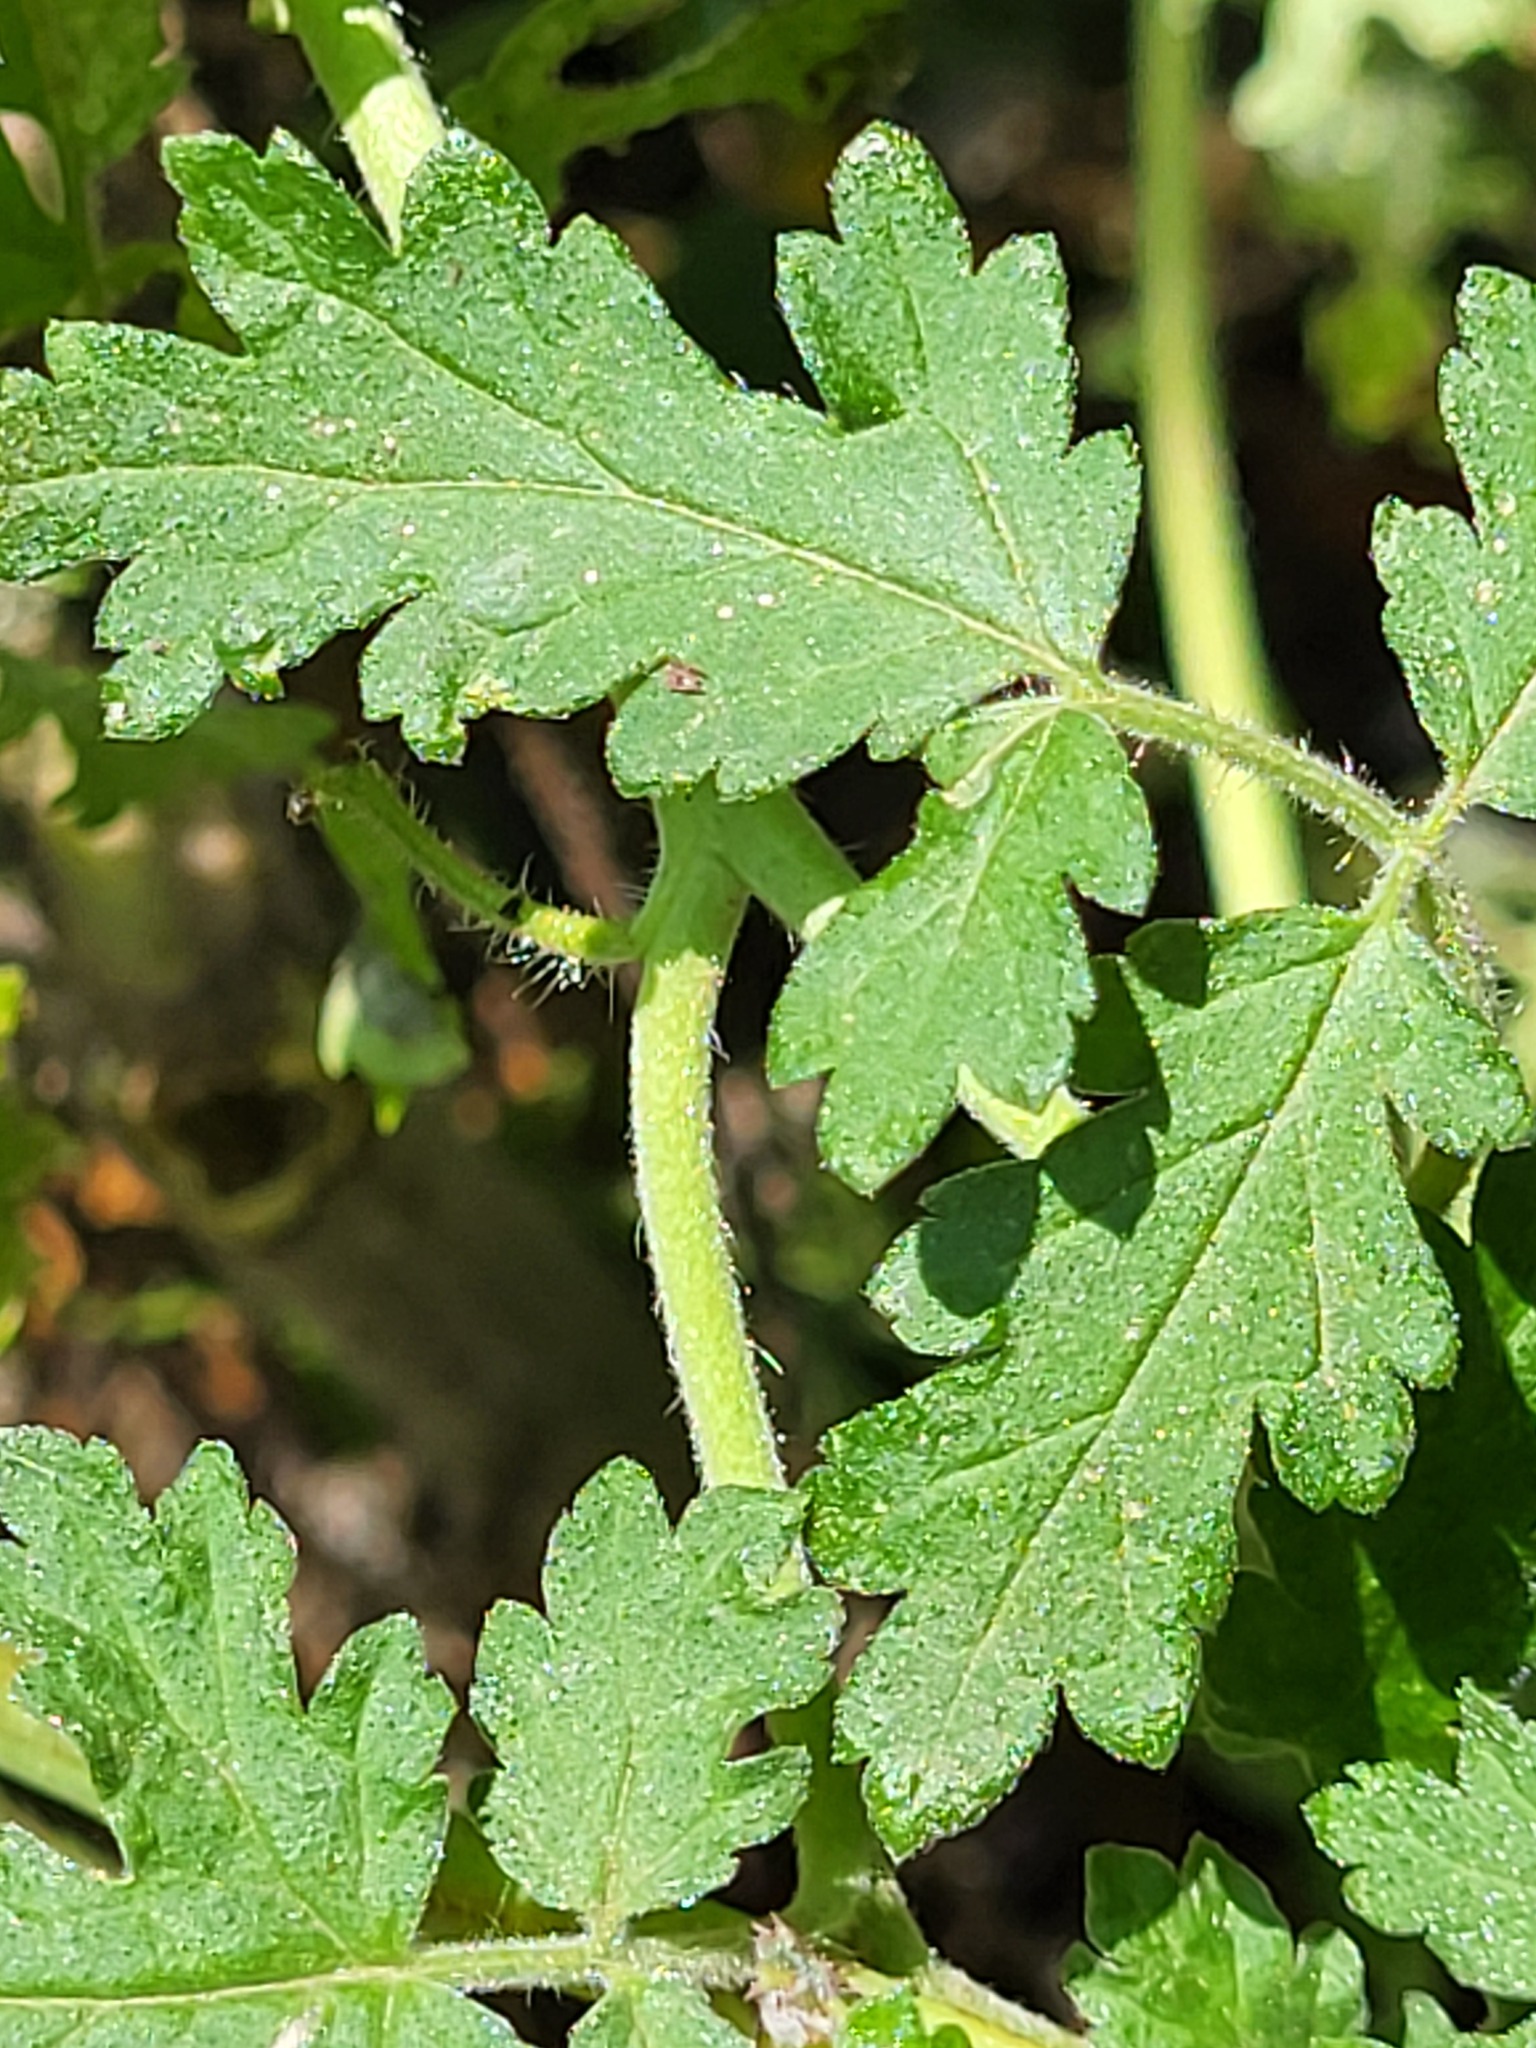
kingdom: Plantae
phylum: Tracheophyta
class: Magnoliopsida
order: Boraginales
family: Hydrophyllaceae
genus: Phacelia
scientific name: Phacelia congesta
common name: Blue curls
